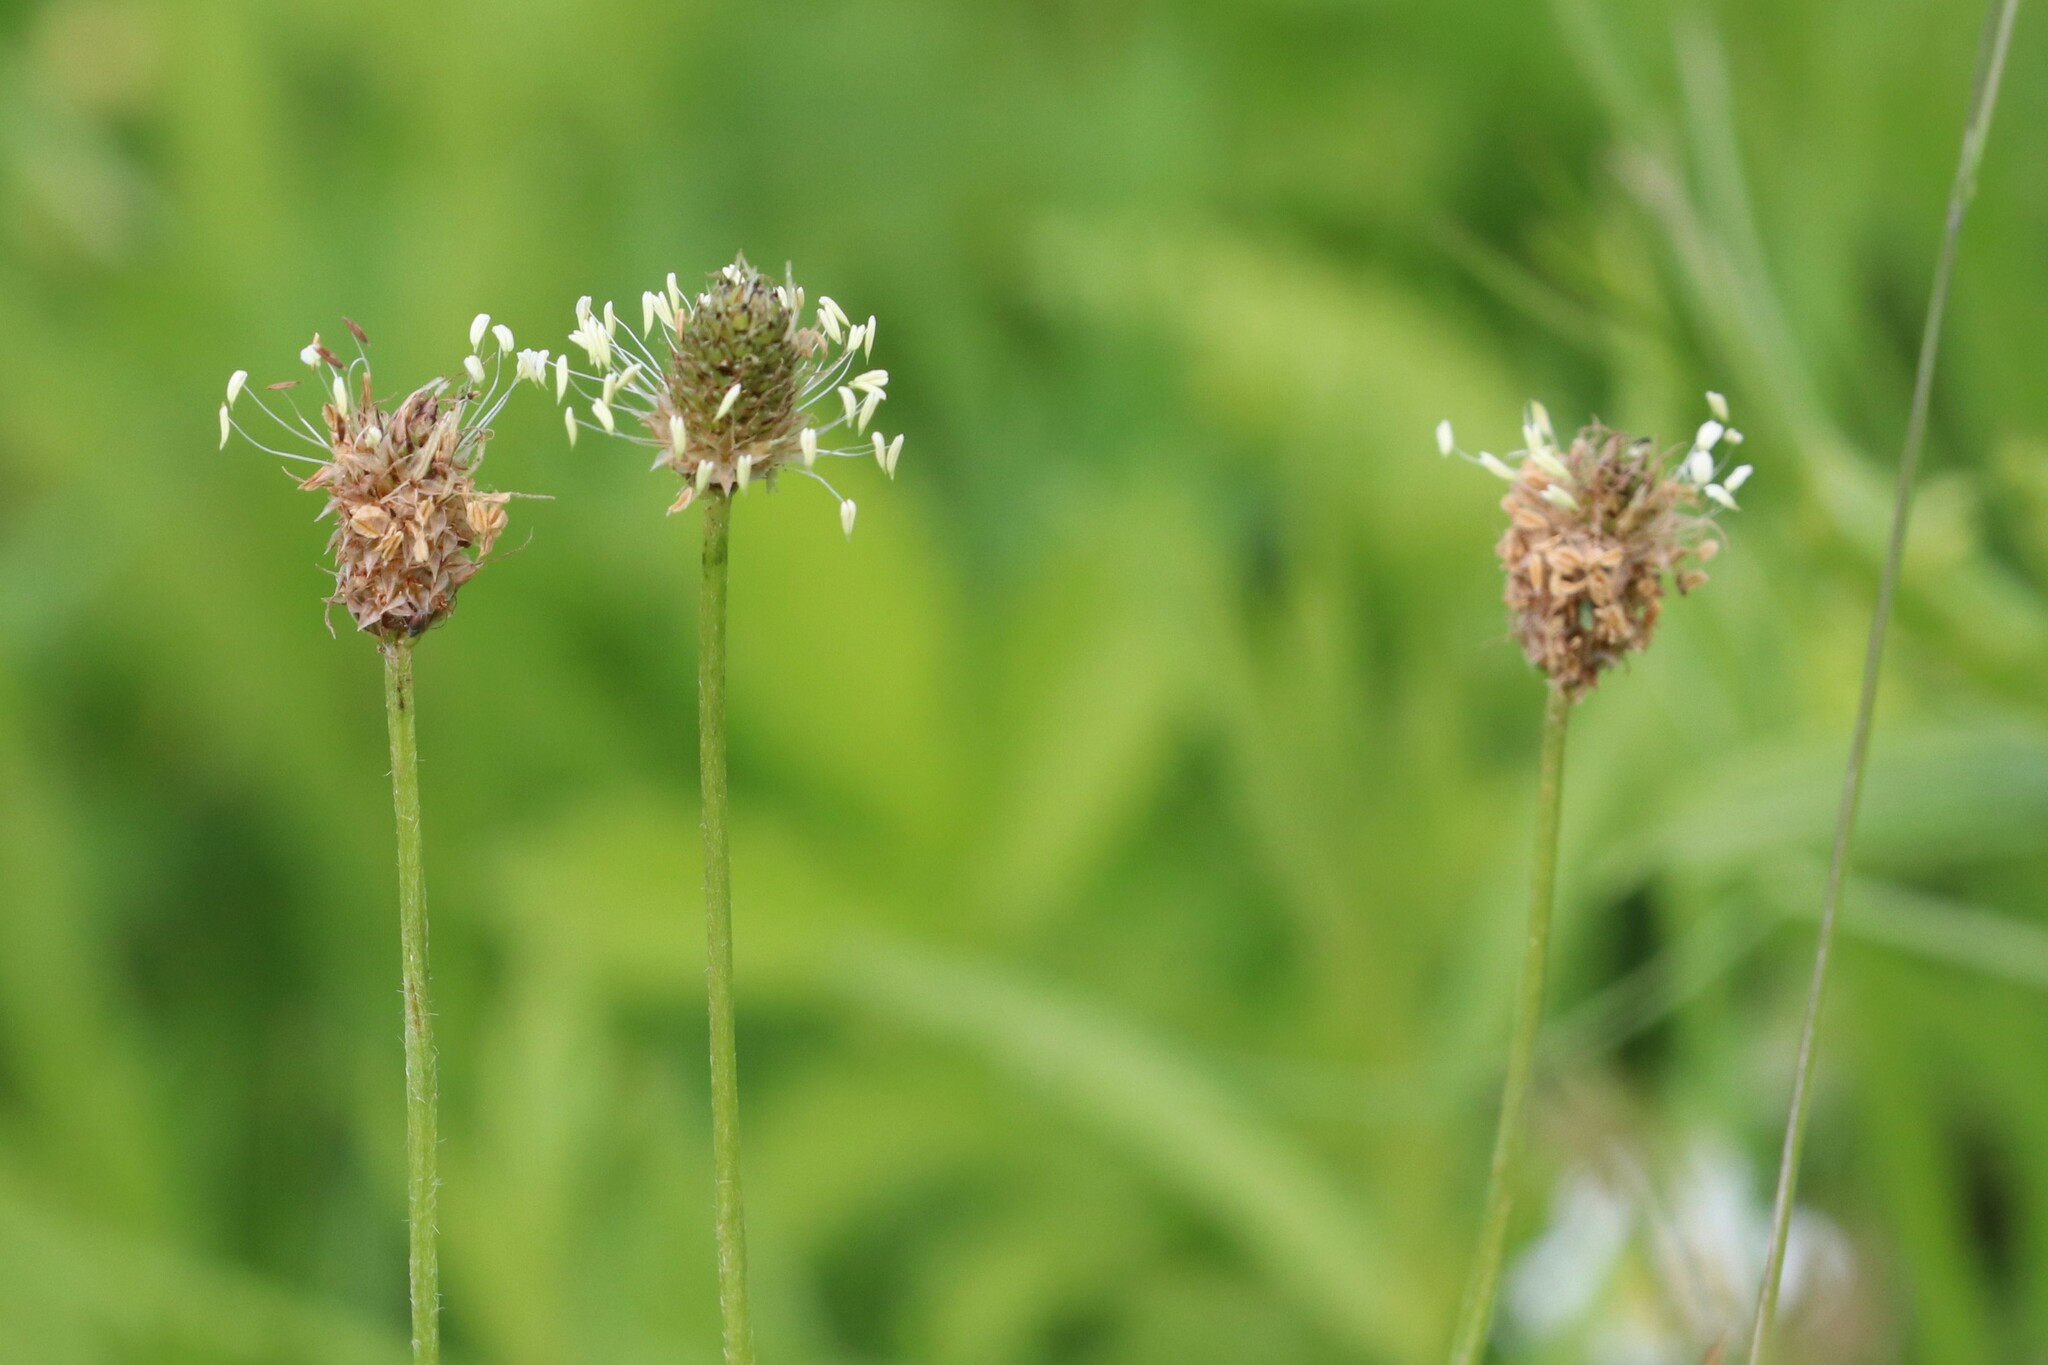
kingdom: Plantae
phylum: Tracheophyta
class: Magnoliopsida
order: Lamiales
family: Plantaginaceae
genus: Plantago
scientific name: Plantago lanceolata
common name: Ribwort plantain
